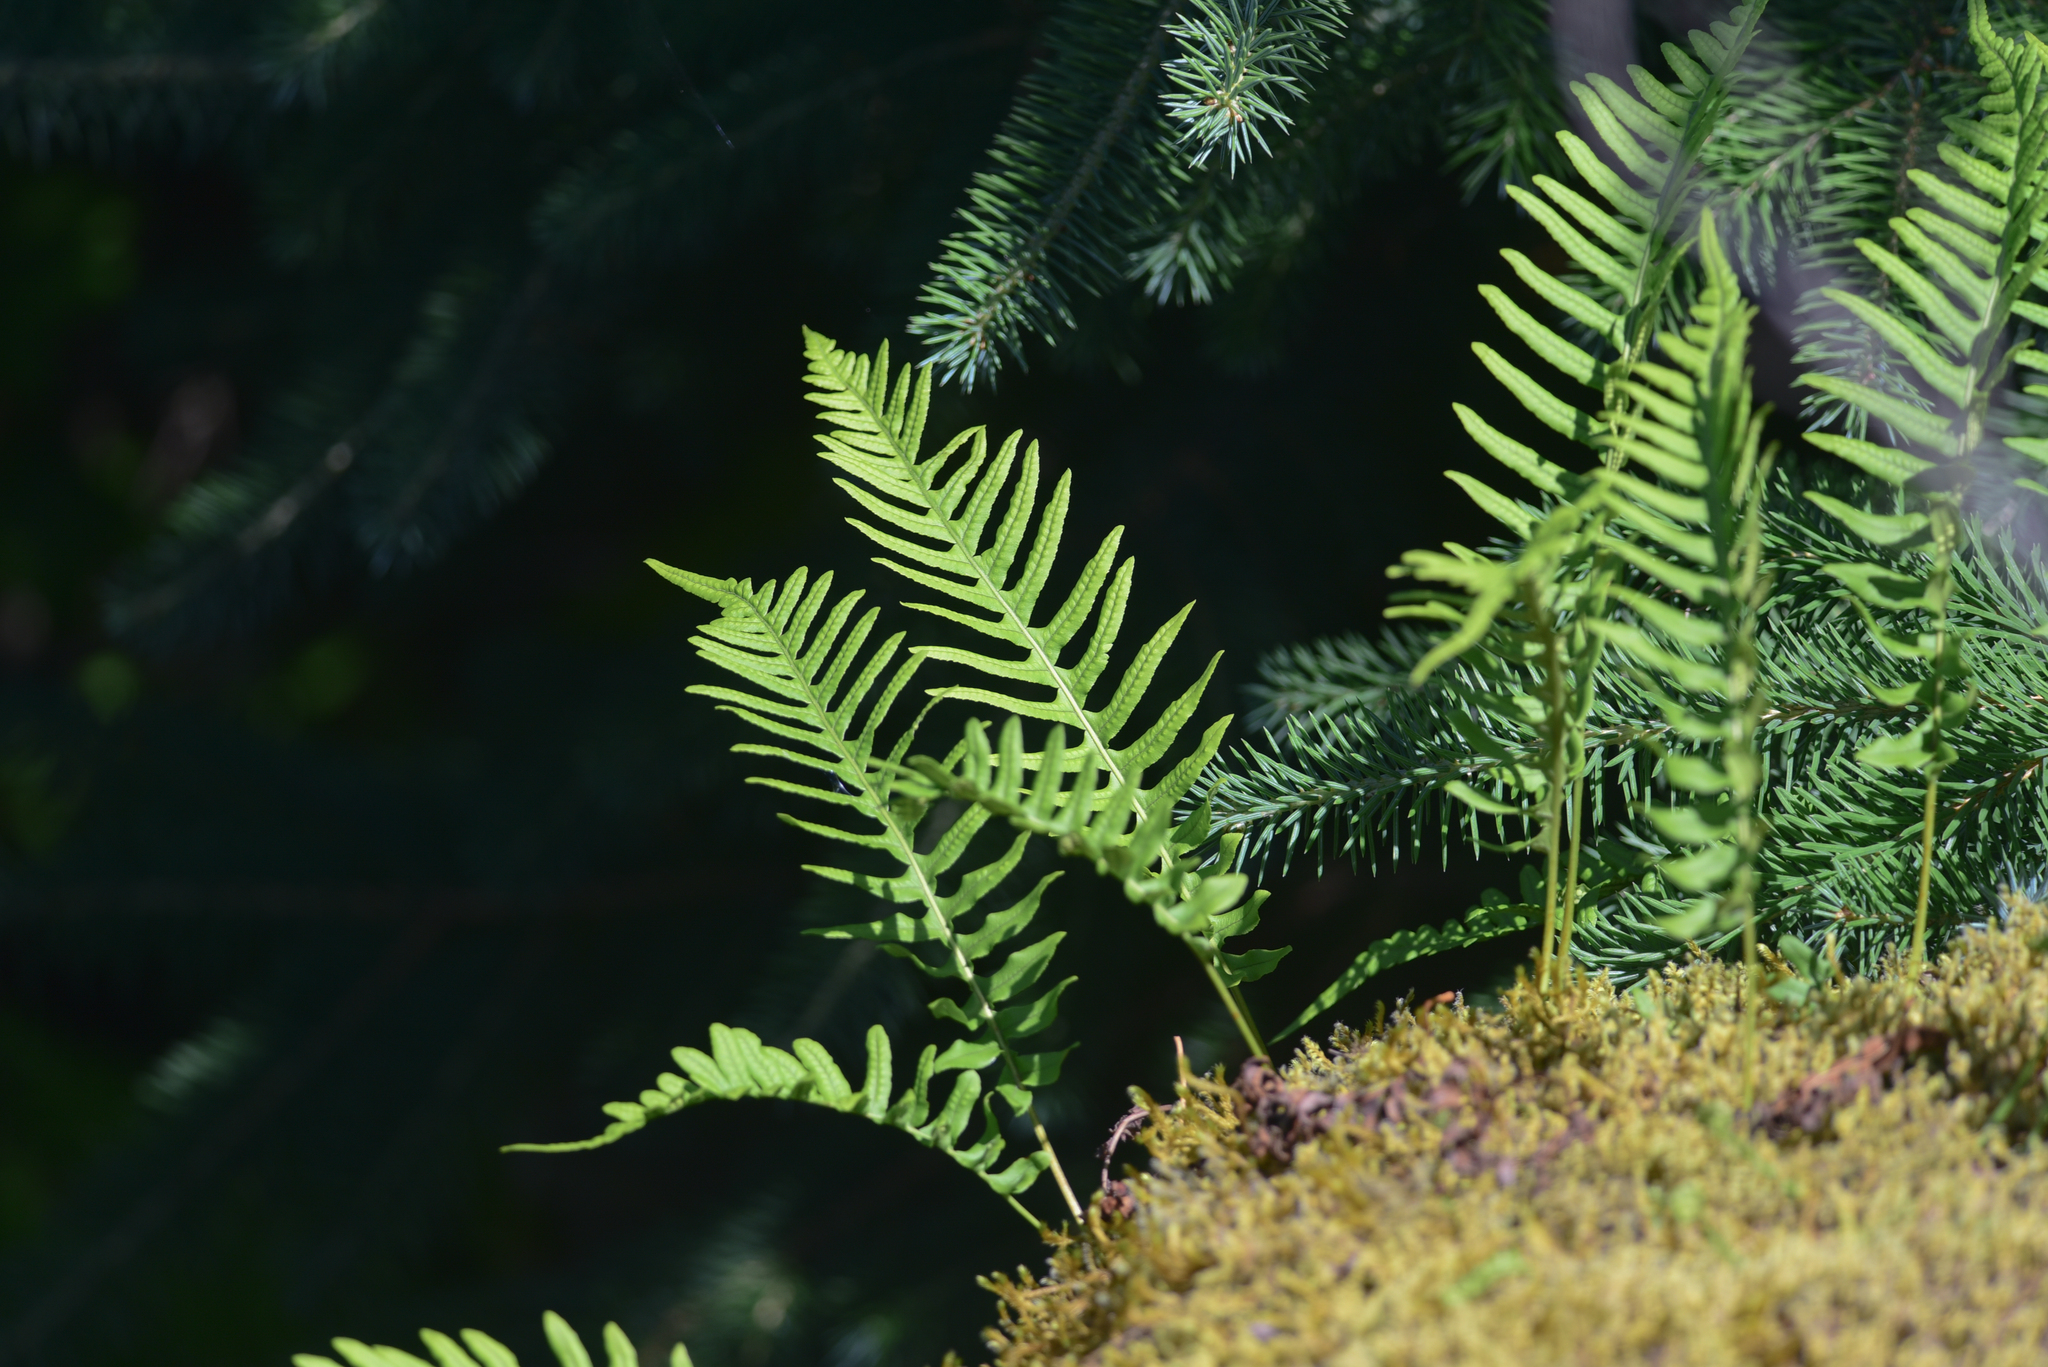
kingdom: Plantae
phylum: Tracheophyta
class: Polypodiopsida
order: Polypodiales
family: Polypodiaceae
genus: Polypodium
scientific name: Polypodium glycyrrhiza
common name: Licorice fern
